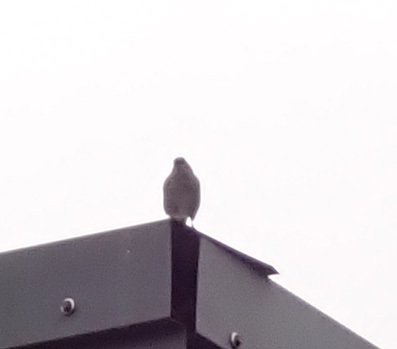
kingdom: Animalia
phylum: Chordata
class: Aves
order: Passeriformes
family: Prunellidae
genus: Prunella
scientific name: Prunella modularis
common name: Dunnock
